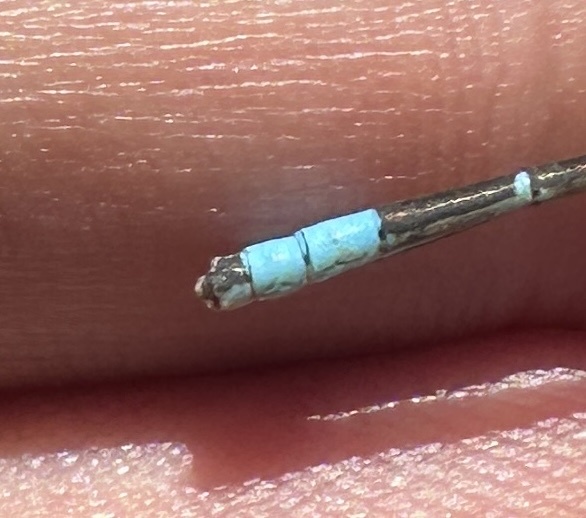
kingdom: Animalia
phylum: Arthropoda
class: Insecta
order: Odonata
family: Coenagrionidae
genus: Enallagma
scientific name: Enallagma carunculatum
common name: Tule bluet
